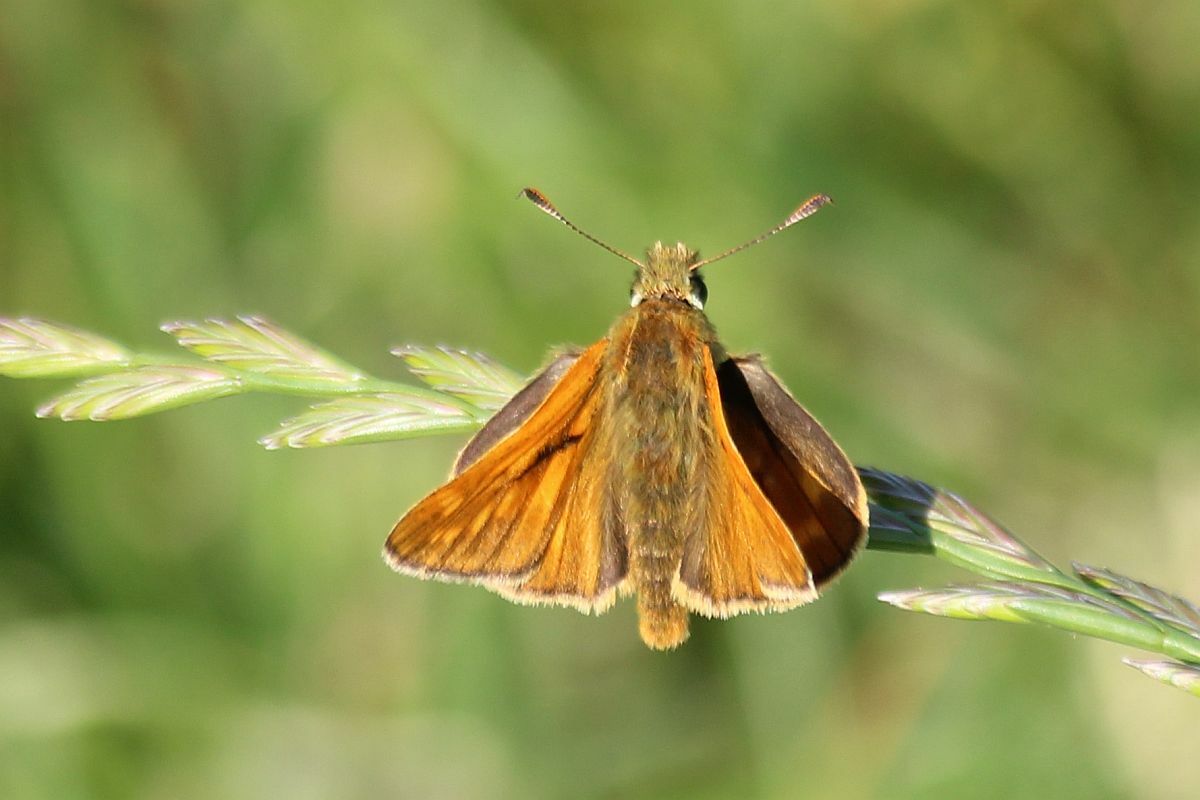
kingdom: Animalia
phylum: Arthropoda
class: Insecta
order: Lepidoptera
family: Hesperiidae
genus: Ochlodes
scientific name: Ochlodes venata
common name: Large skipper
